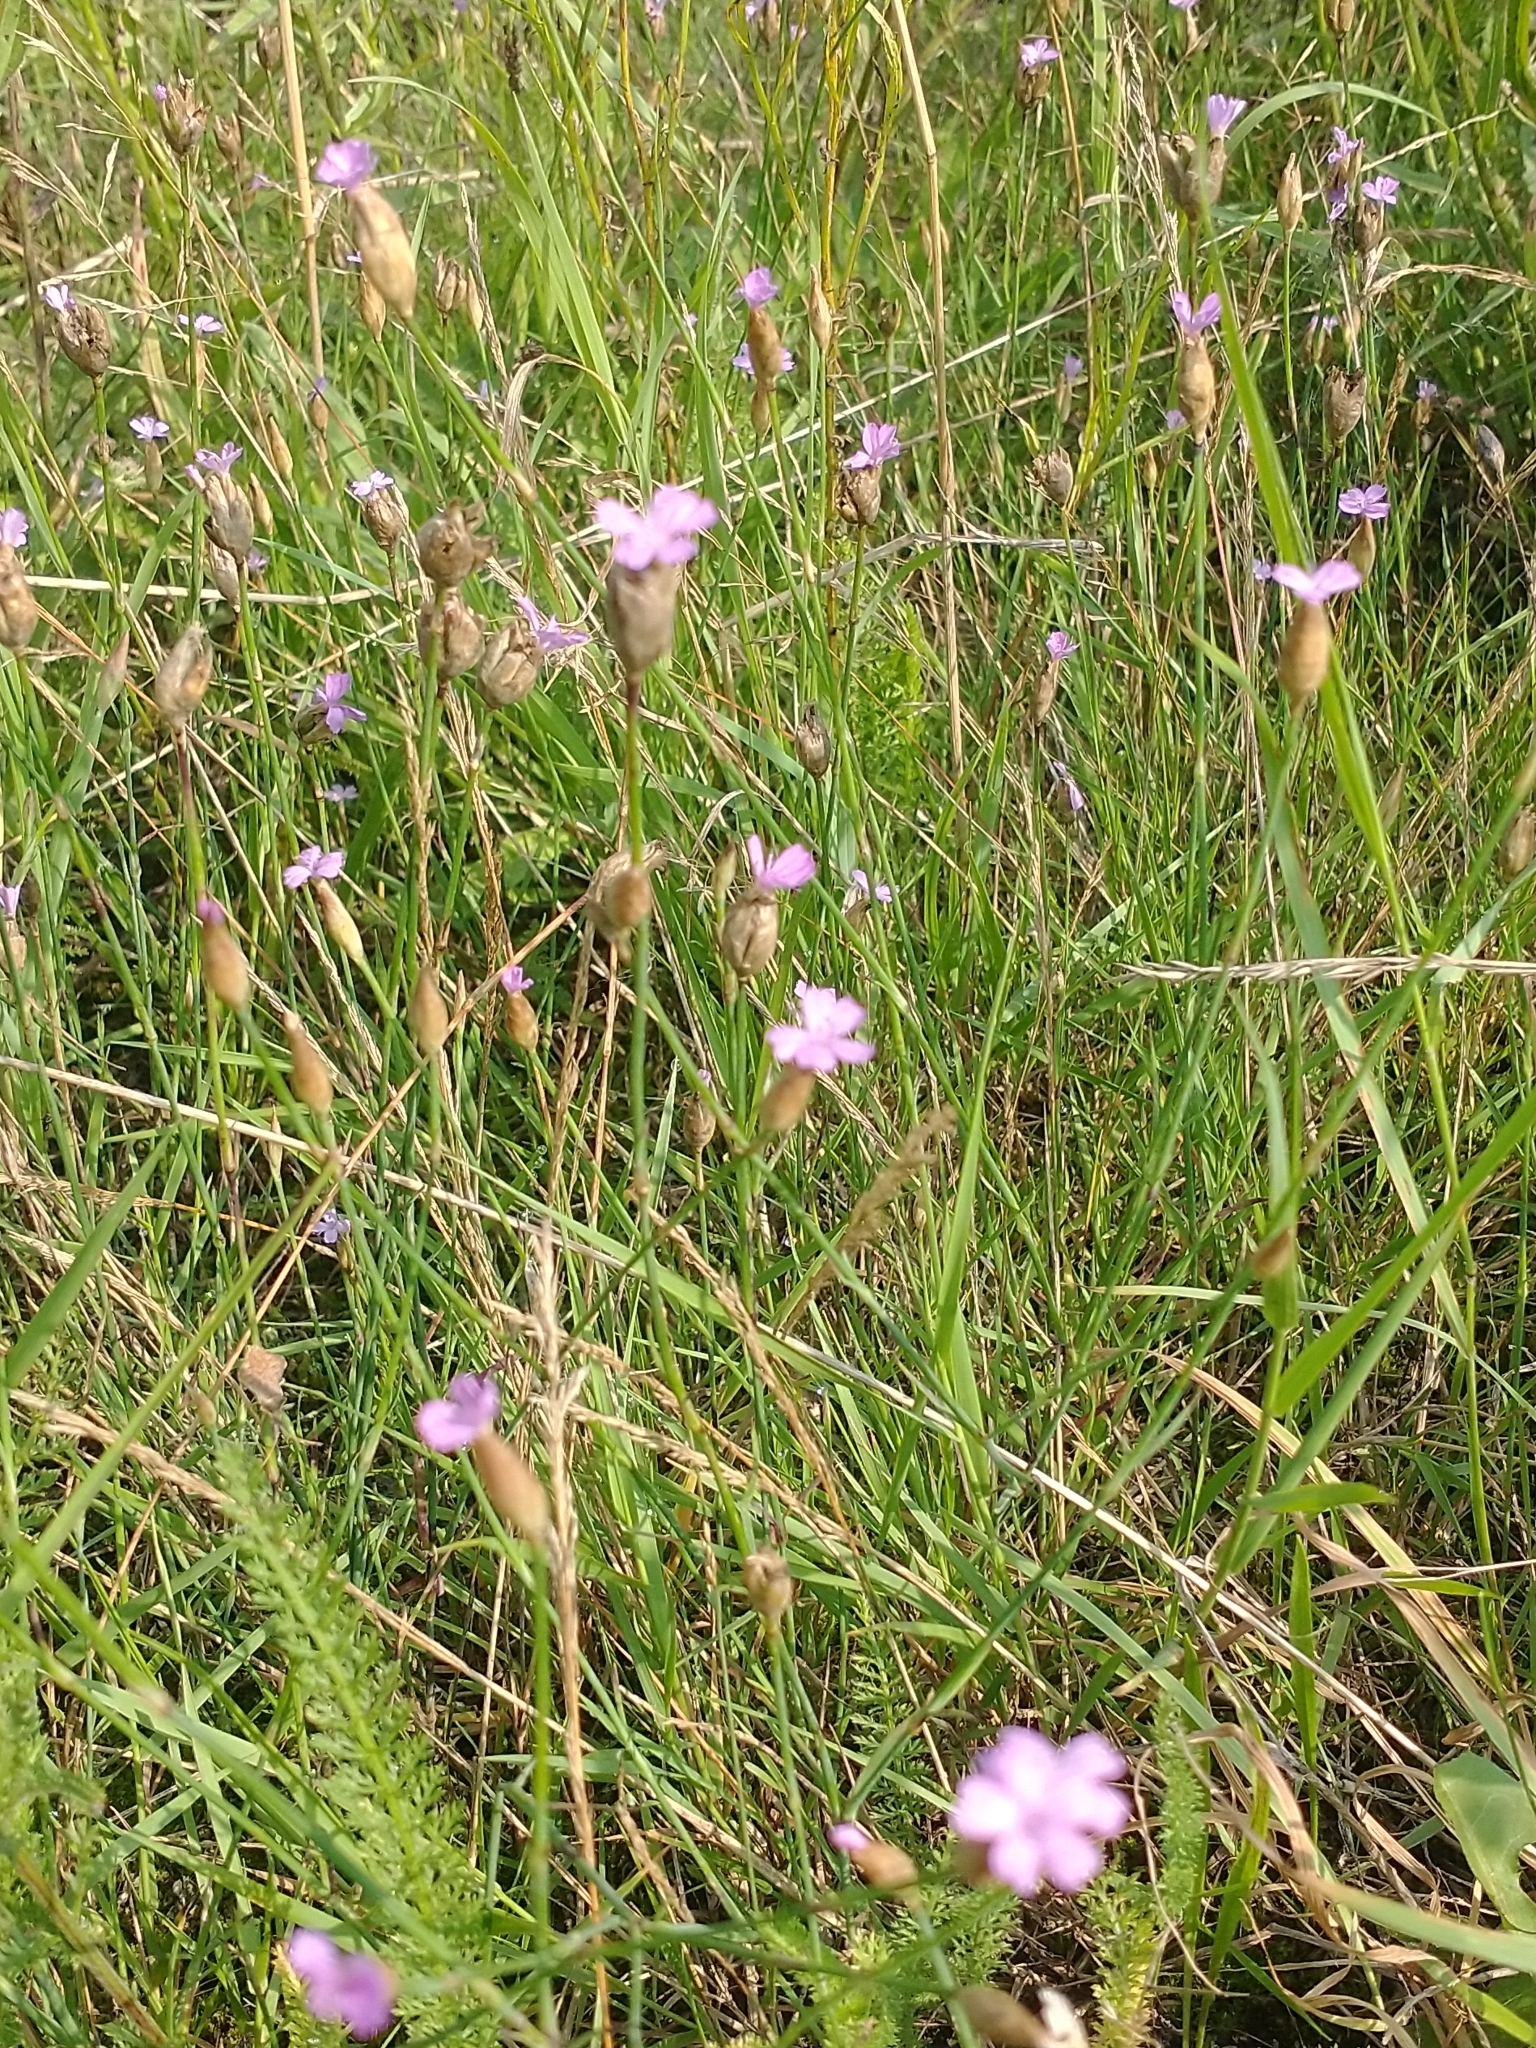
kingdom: Plantae
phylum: Tracheophyta
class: Magnoliopsida
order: Caryophyllales
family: Caryophyllaceae
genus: Petrorhagia
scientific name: Petrorhagia prolifera
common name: Proliferous pink
